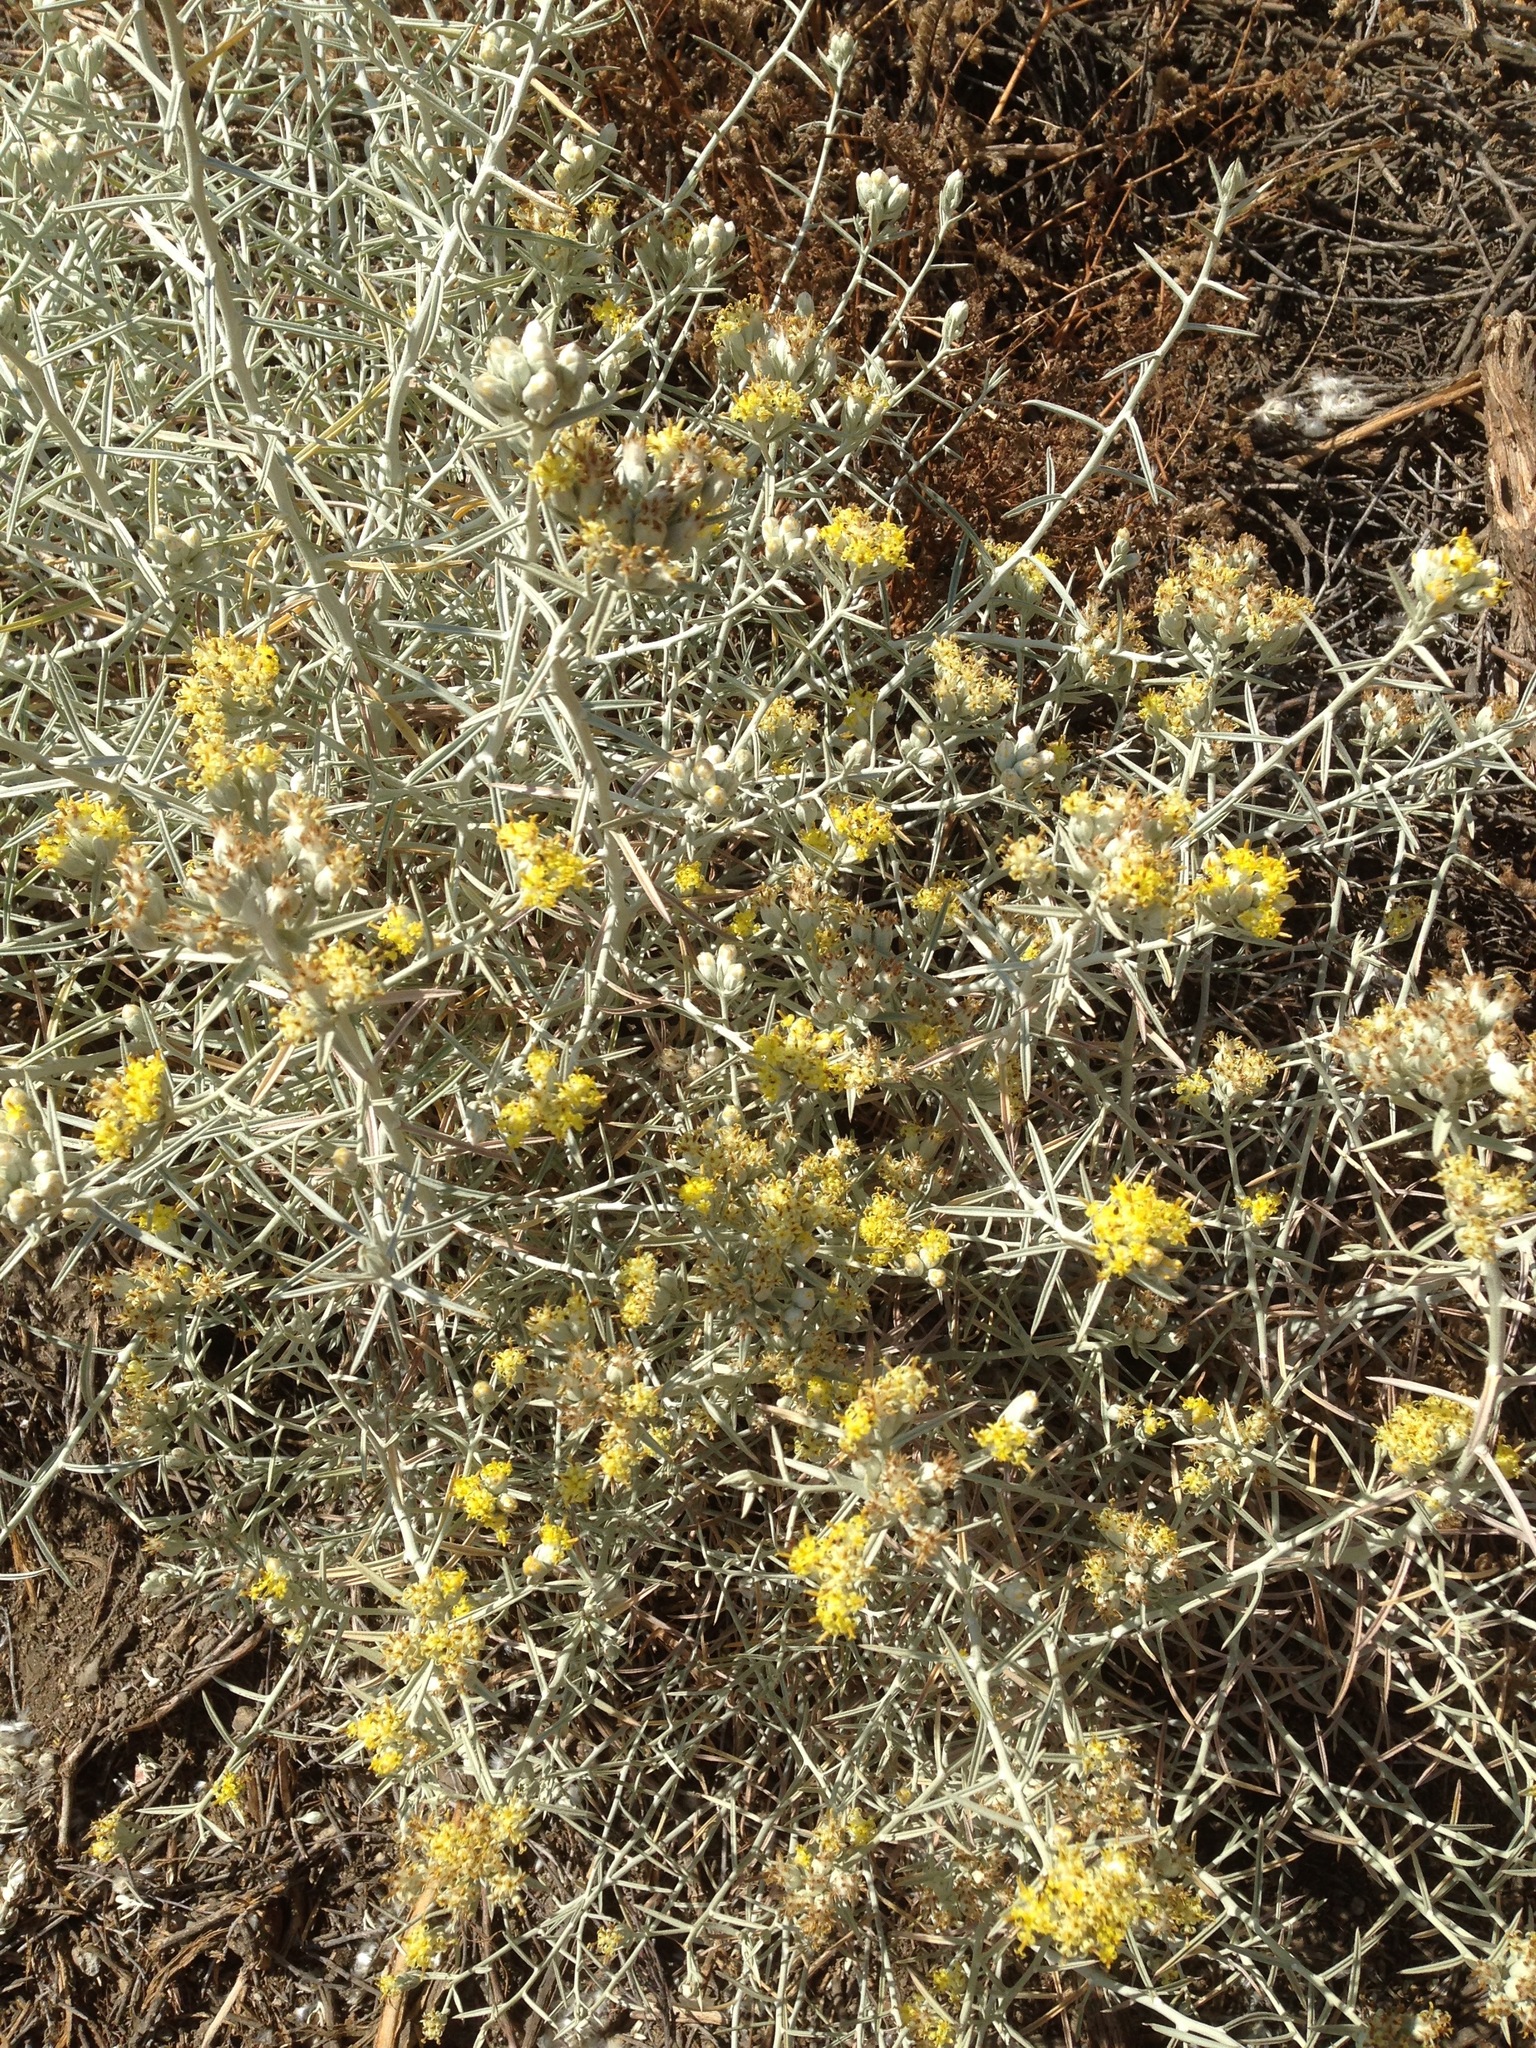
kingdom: Plantae
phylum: Tracheophyta
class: Magnoliopsida
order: Asterales
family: Asteraceae
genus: Tetradymia
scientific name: Tetradymia comosa
